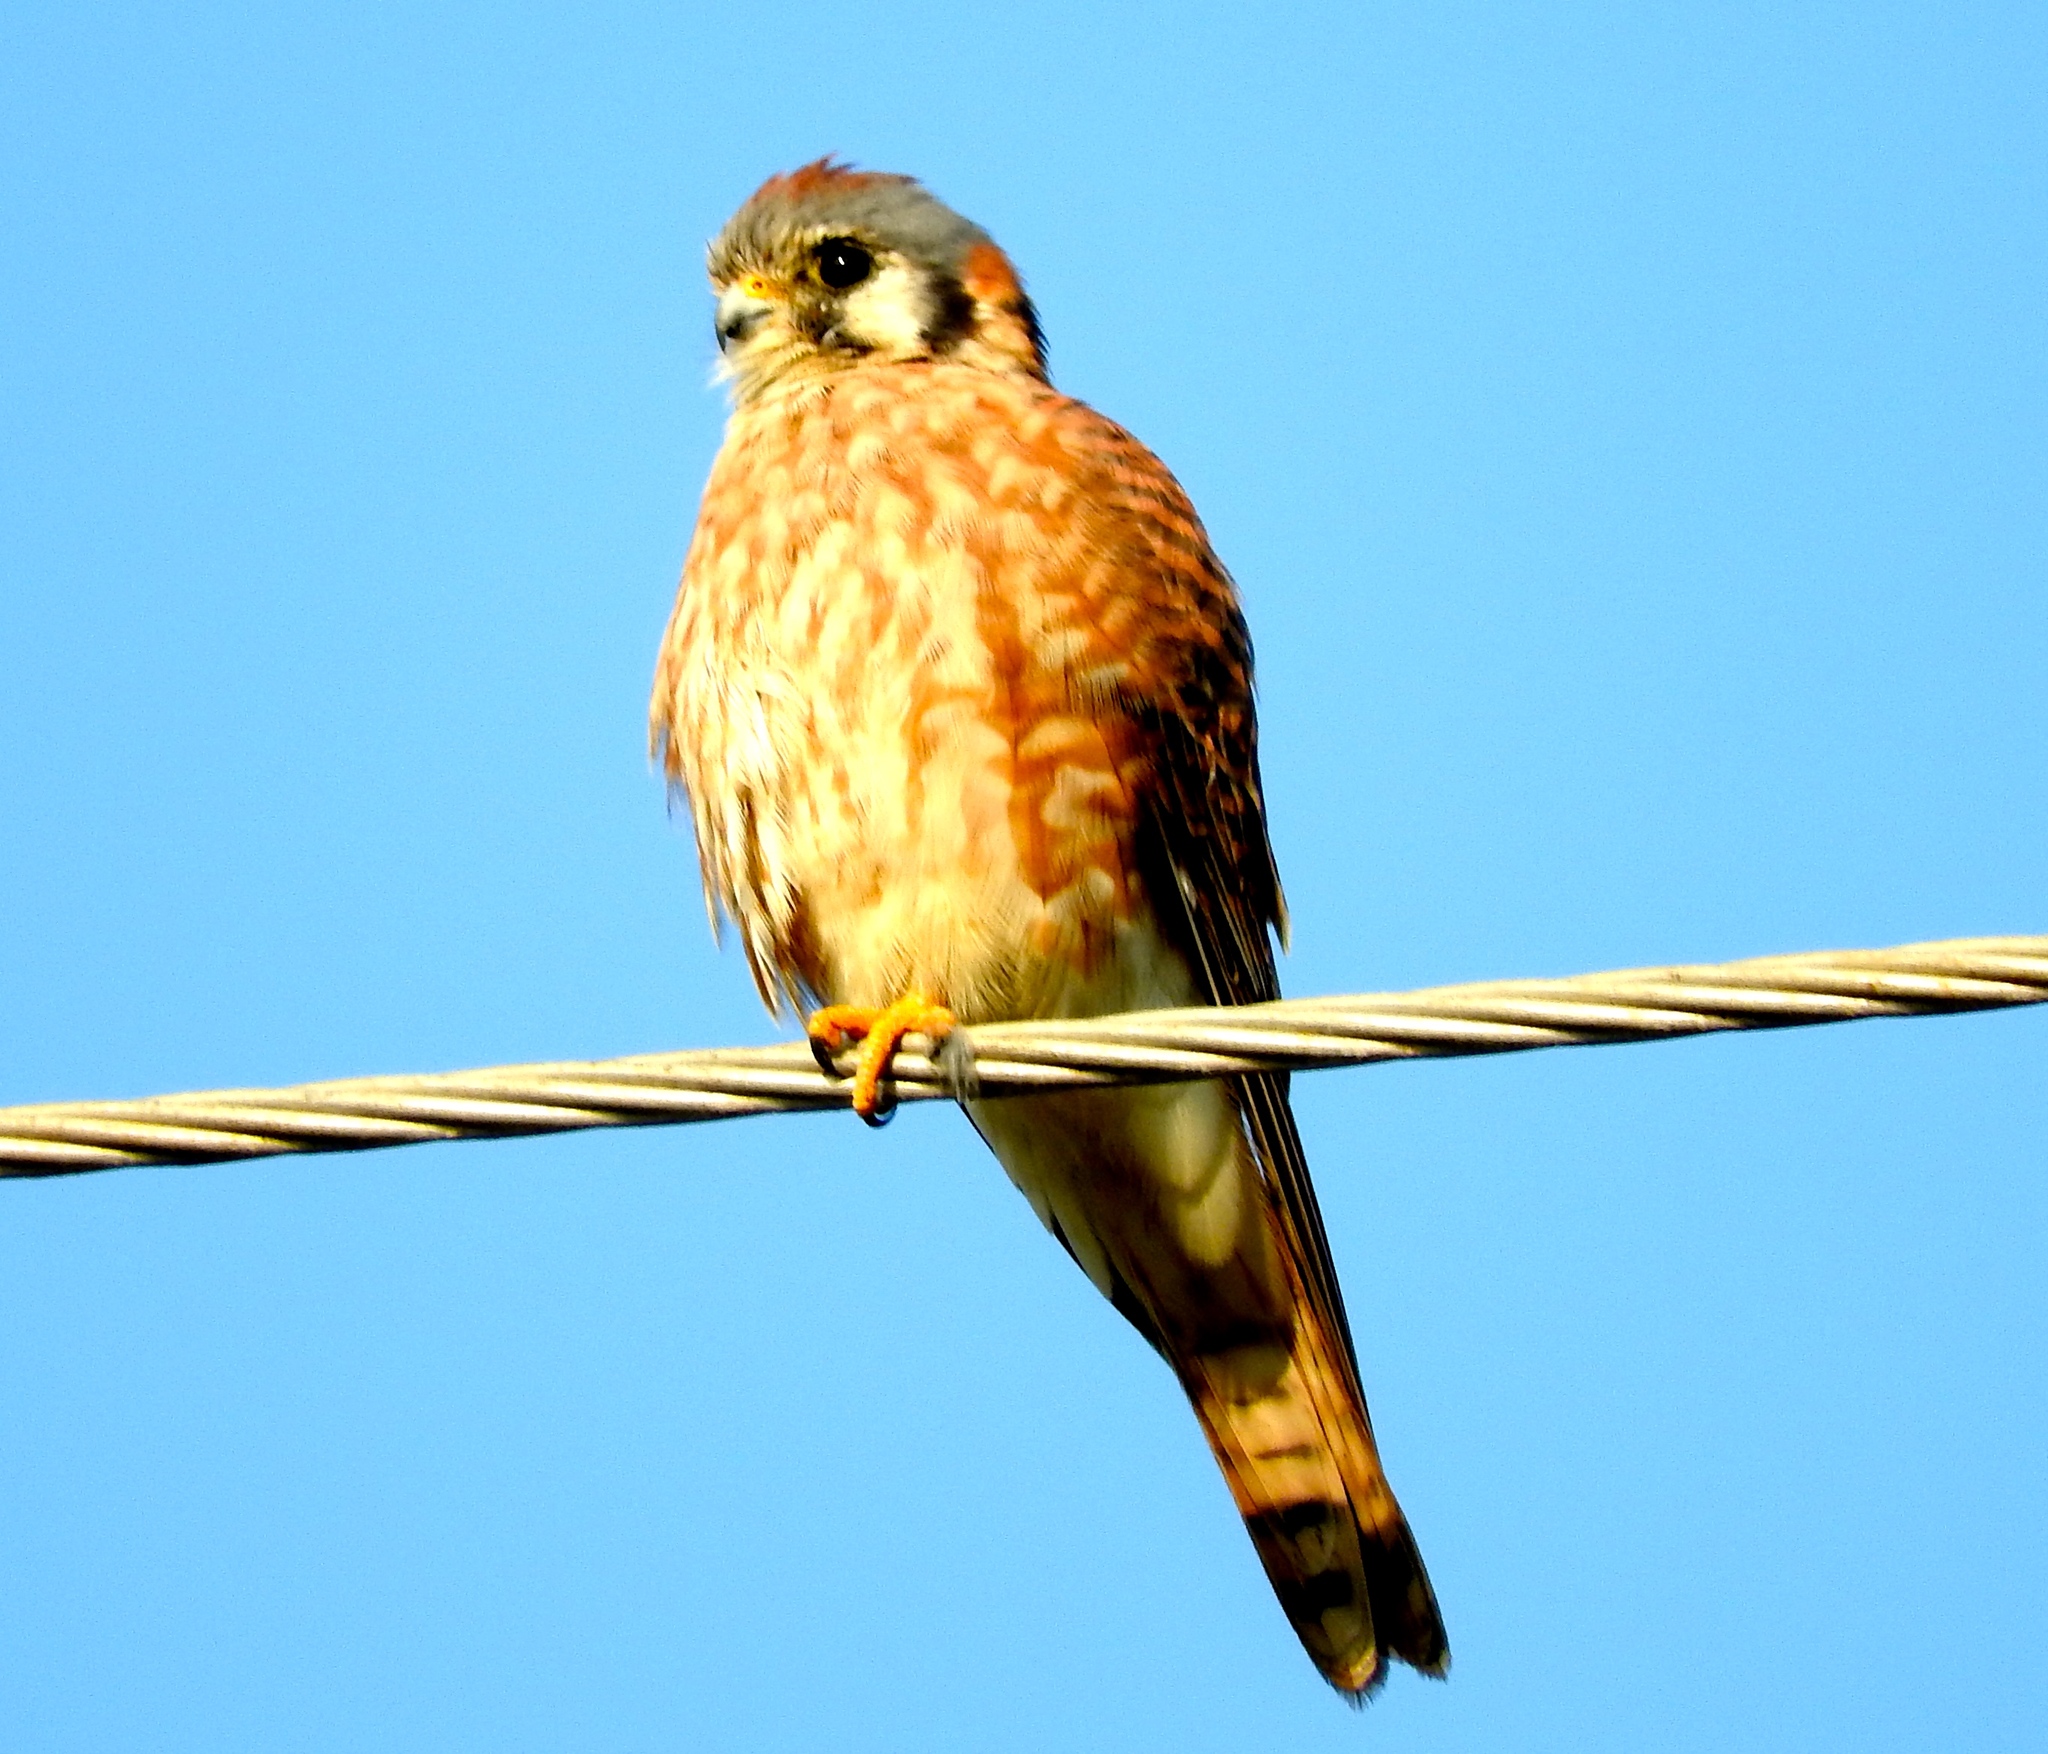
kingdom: Animalia
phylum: Chordata
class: Aves
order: Falconiformes
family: Falconidae
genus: Falco
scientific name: Falco sparverius
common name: American kestrel
